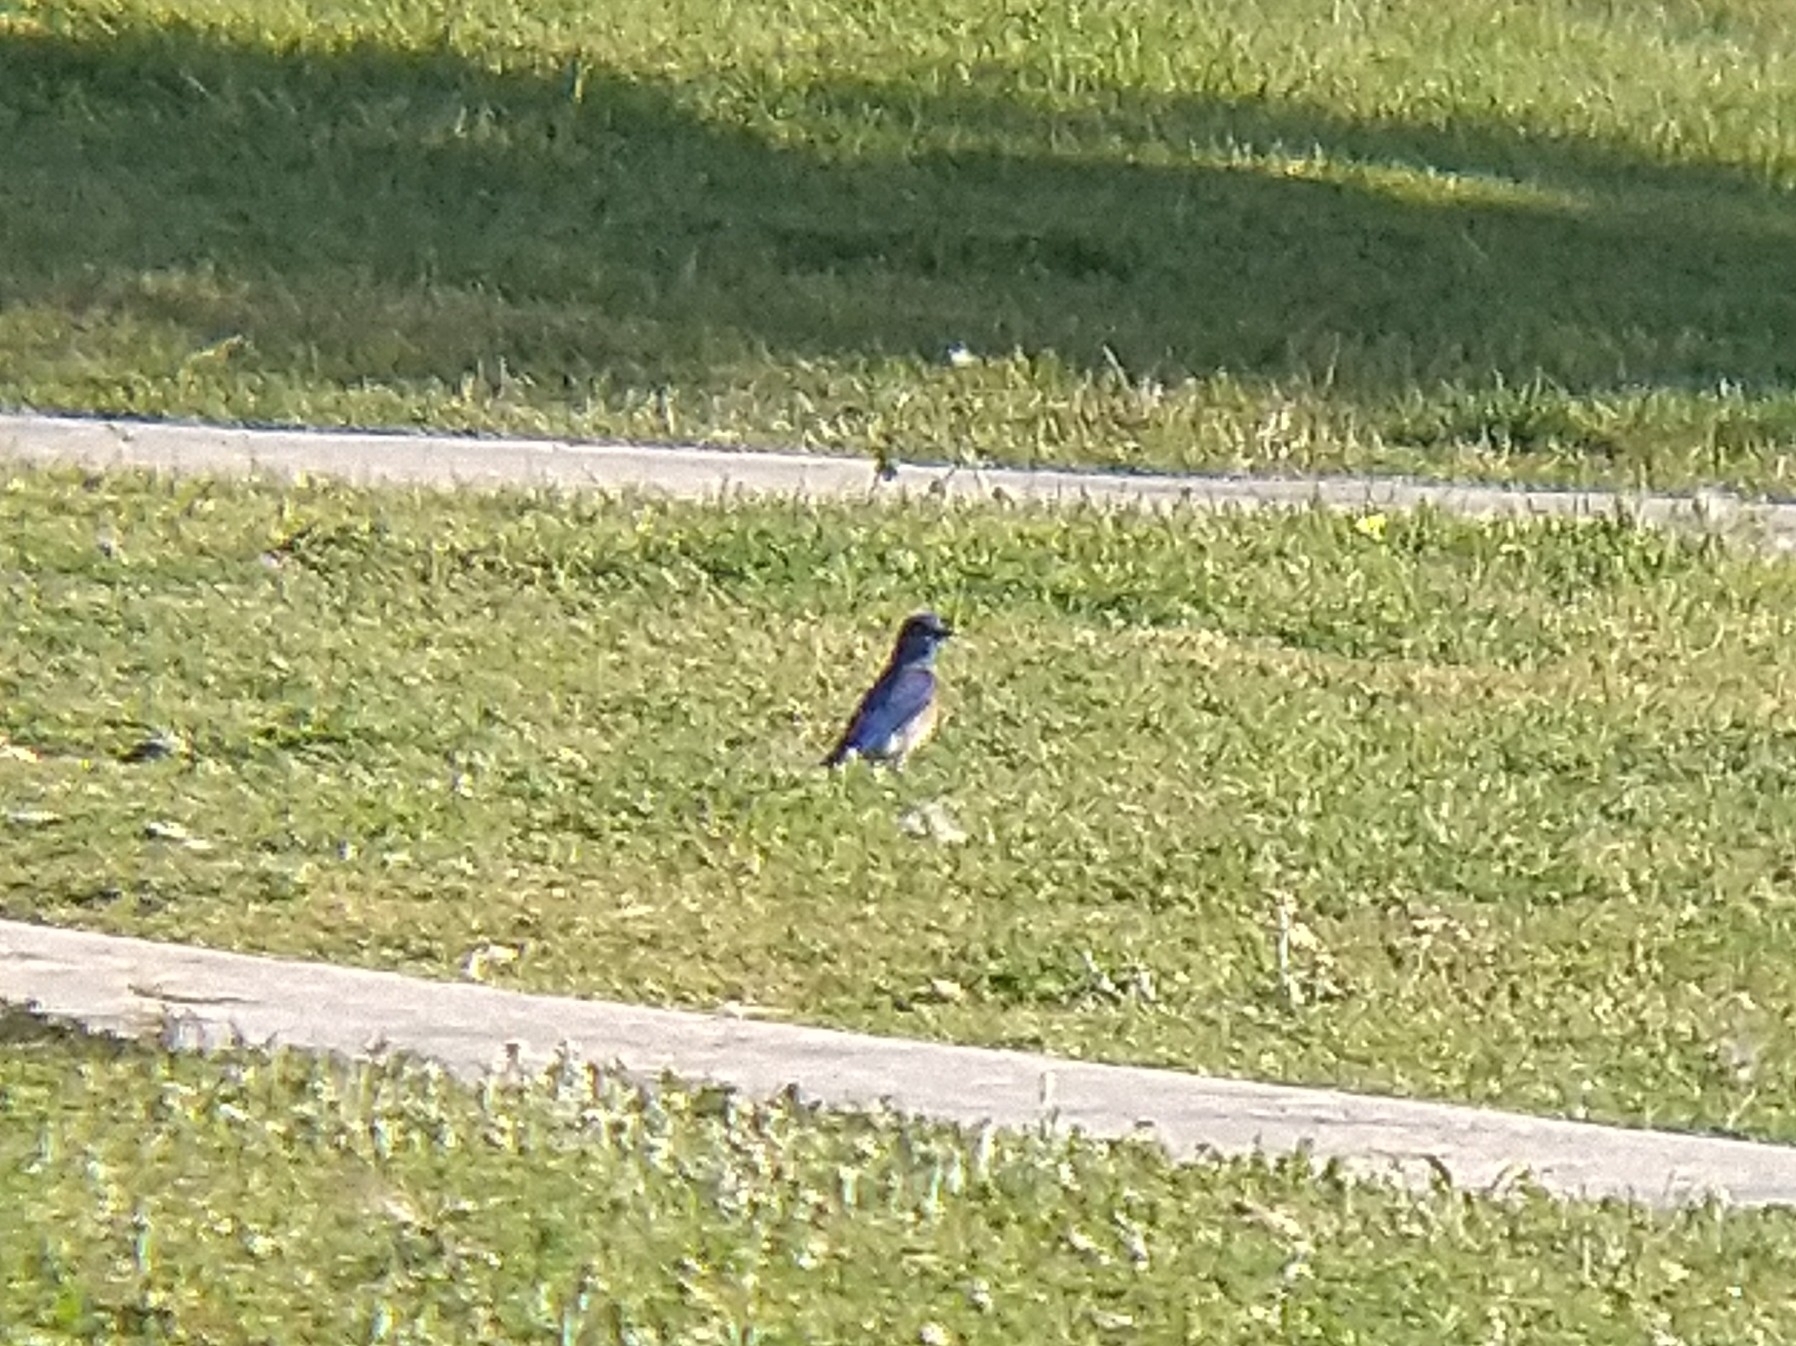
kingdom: Animalia
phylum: Chordata
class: Aves
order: Passeriformes
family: Turdidae
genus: Sialia
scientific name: Sialia mexicana
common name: Western bluebird
